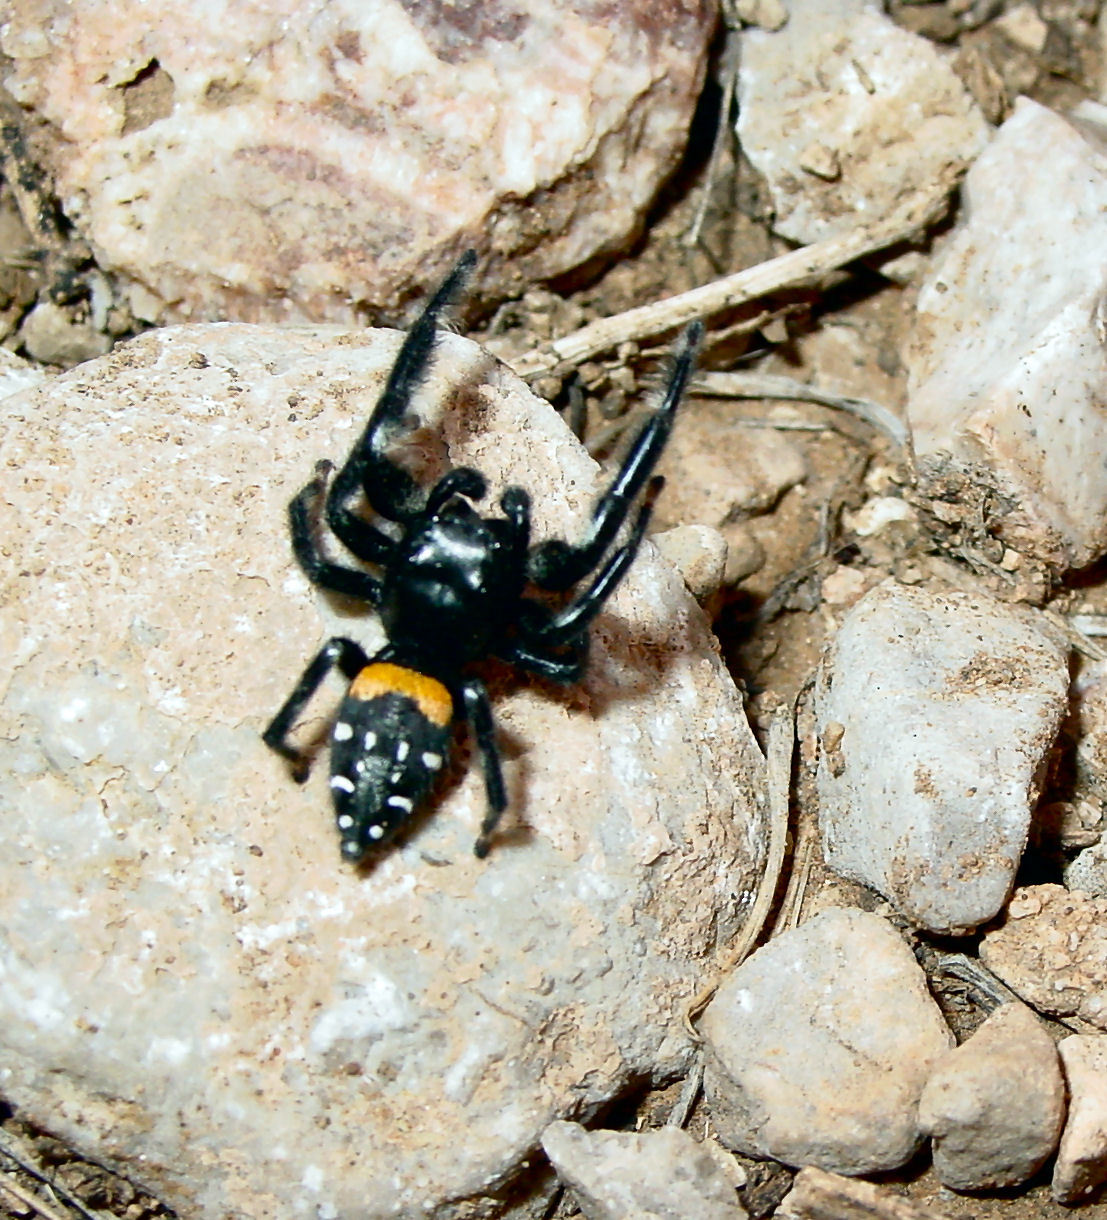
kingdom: Animalia
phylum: Arthropoda
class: Arachnida
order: Araneae
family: Salticidae
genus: Paraphidippus
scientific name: Paraphidippus basalis
